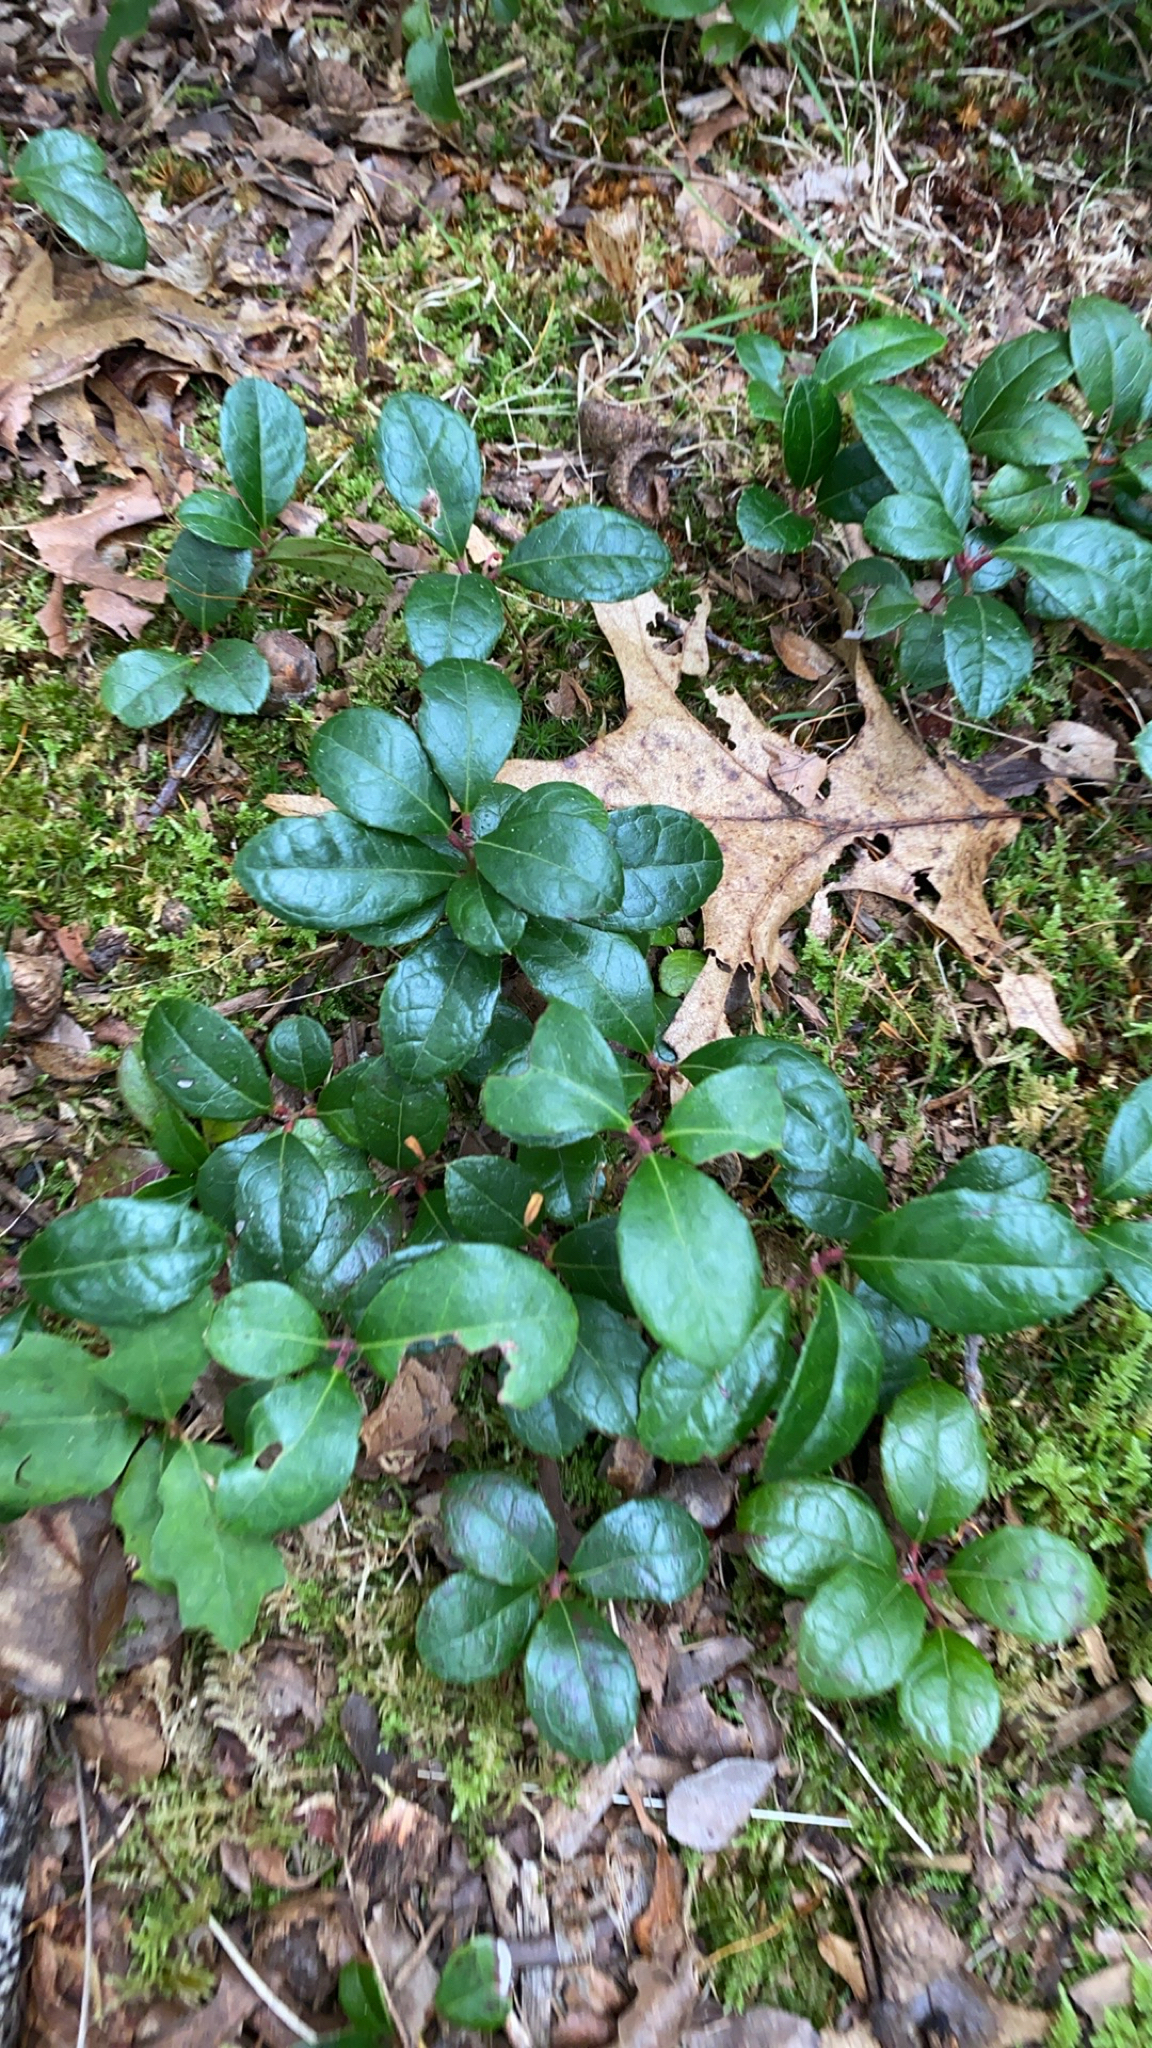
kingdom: Plantae
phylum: Tracheophyta
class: Magnoliopsida
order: Ericales
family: Ericaceae
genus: Gaultheria
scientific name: Gaultheria procumbens
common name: Checkerberry
